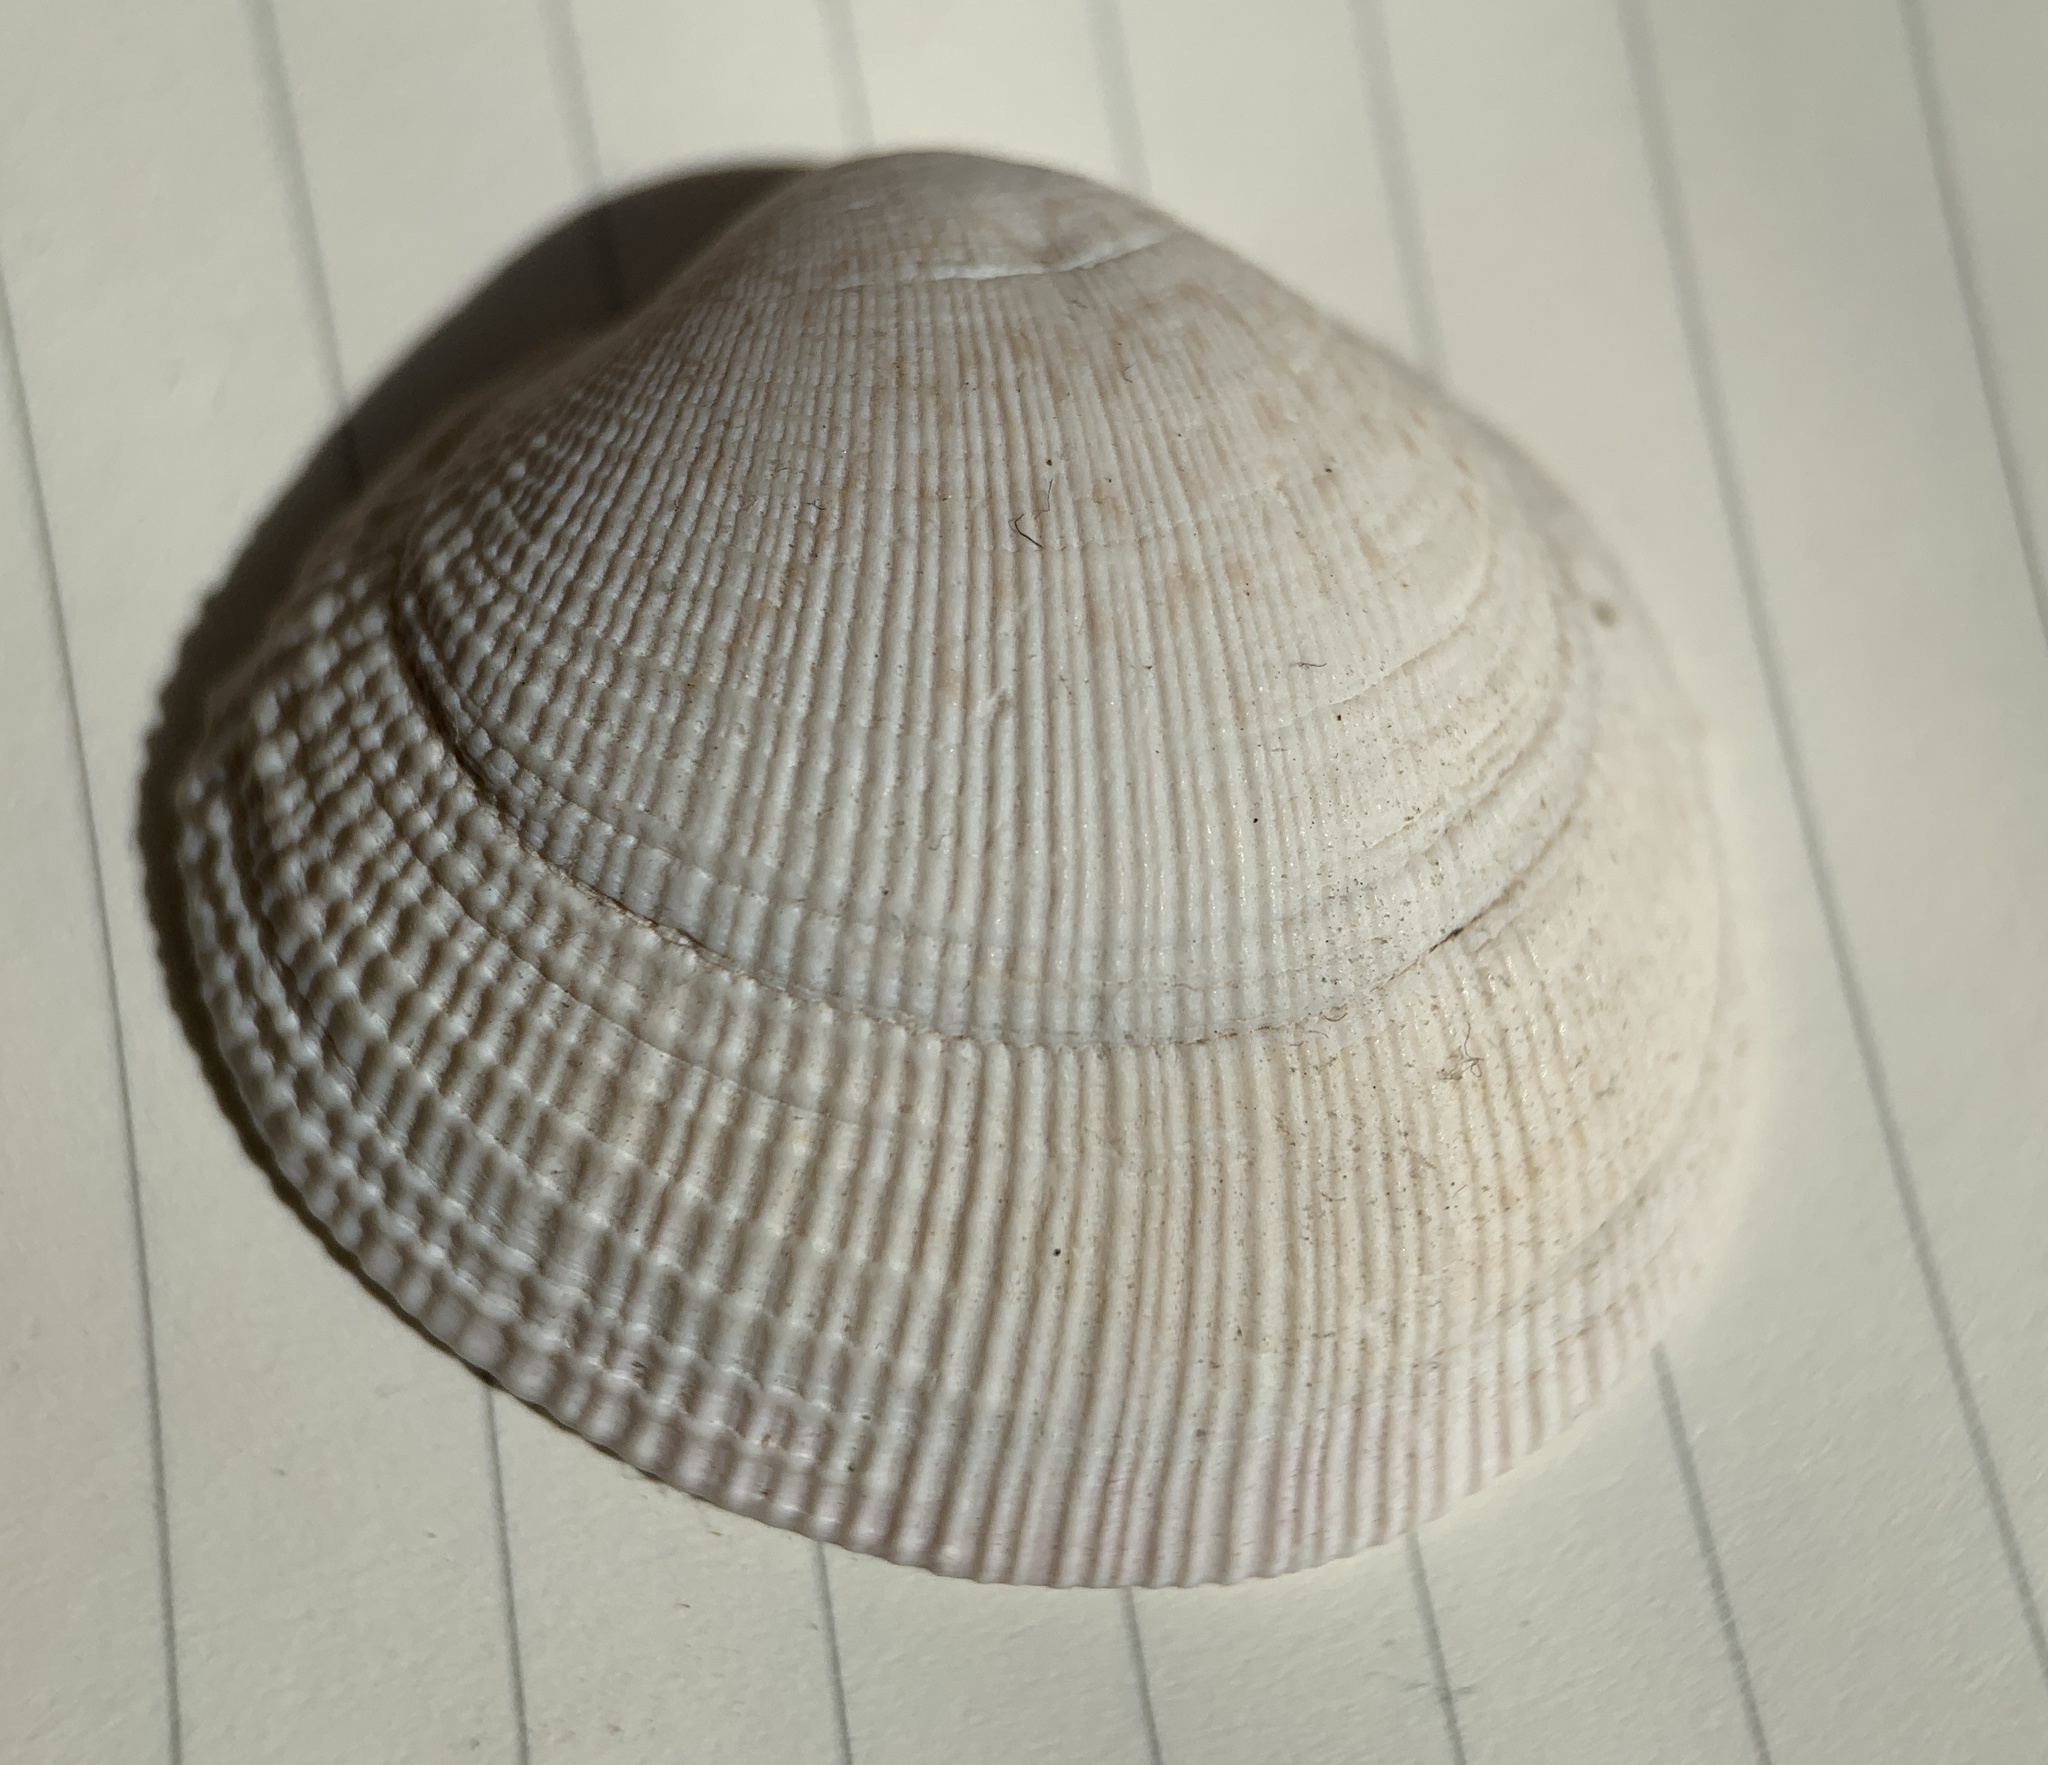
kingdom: Animalia
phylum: Mollusca
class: Bivalvia
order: Venerida
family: Veneridae
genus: Leukoma
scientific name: Leukoma staminea
